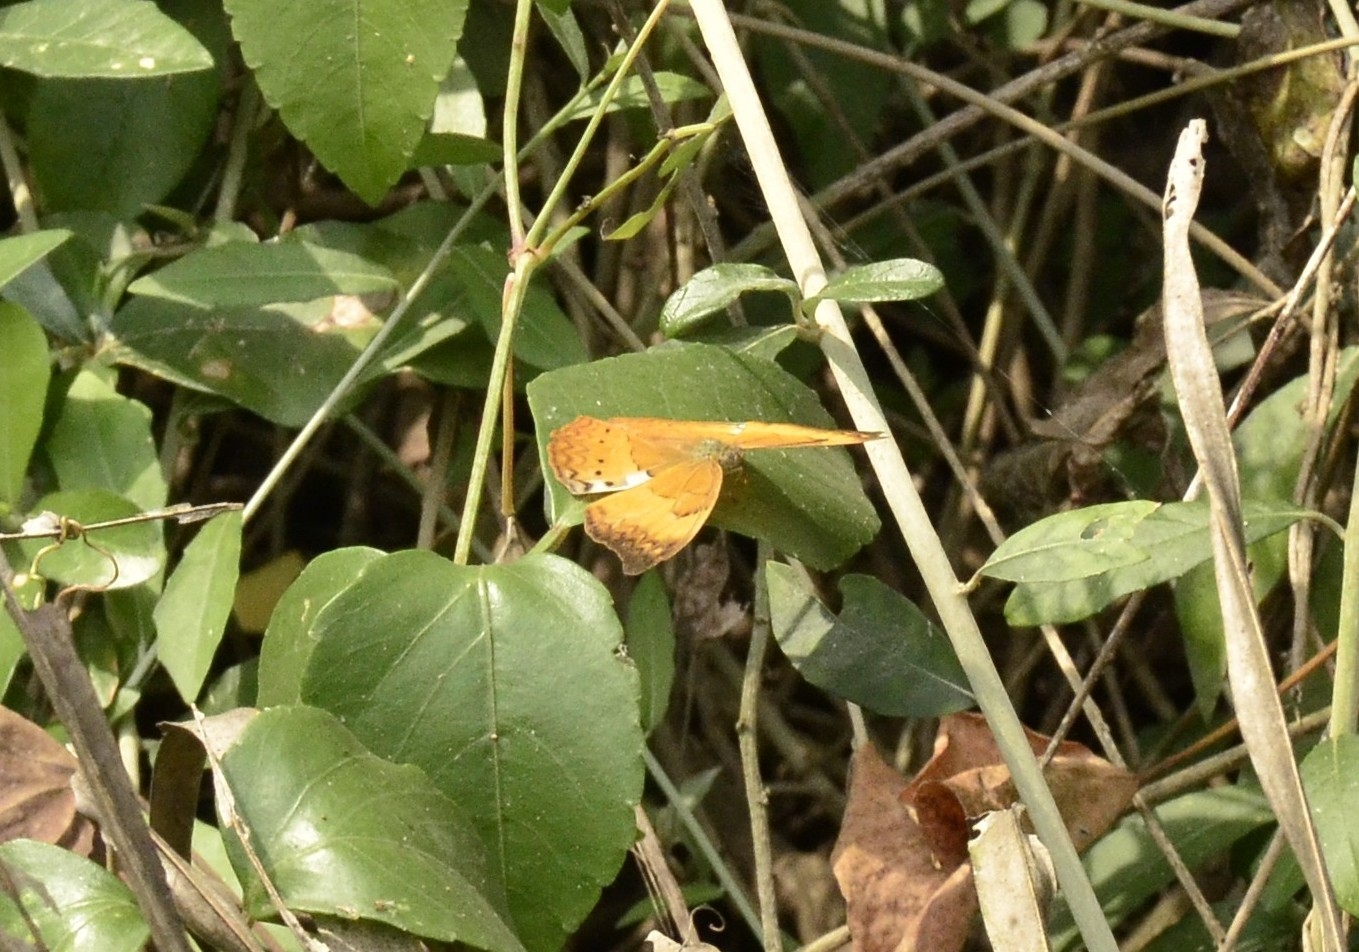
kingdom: Animalia
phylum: Arthropoda
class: Insecta
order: Lepidoptera
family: Nymphalidae
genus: Cirrochroa
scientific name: Cirrochroa thais
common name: Tamil yeoman
